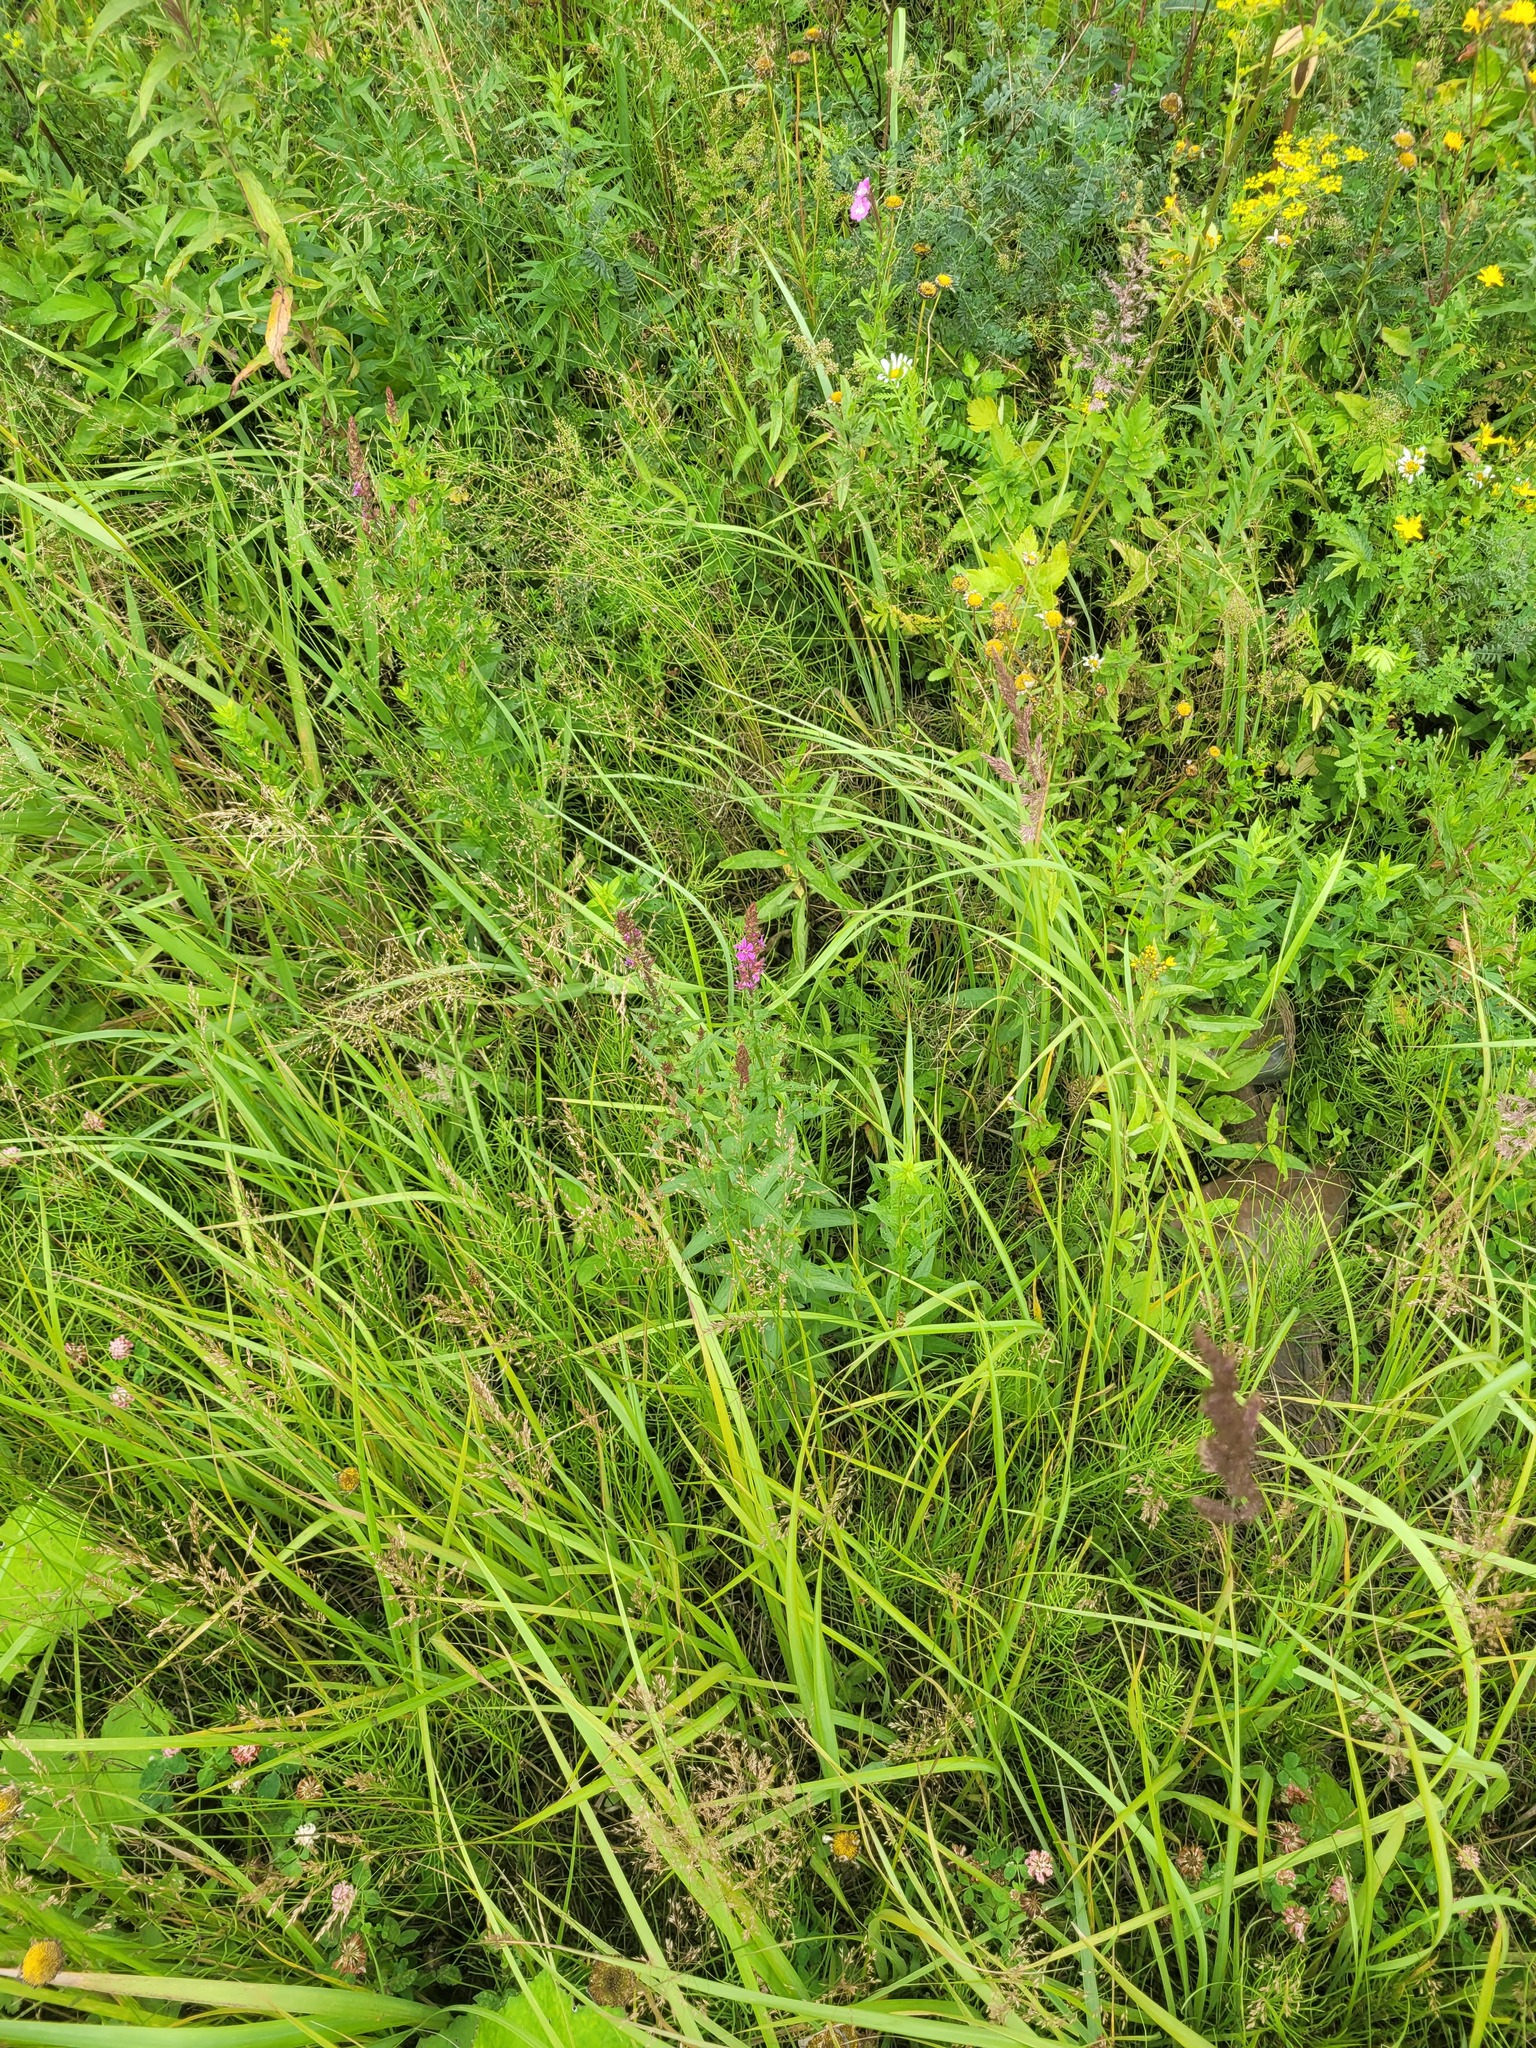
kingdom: Plantae
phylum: Tracheophyta
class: Magnoliopsida
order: Myrtales
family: Lythraceae
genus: Lythrum
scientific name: Lythrum salicaria
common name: Purple loosestrife
